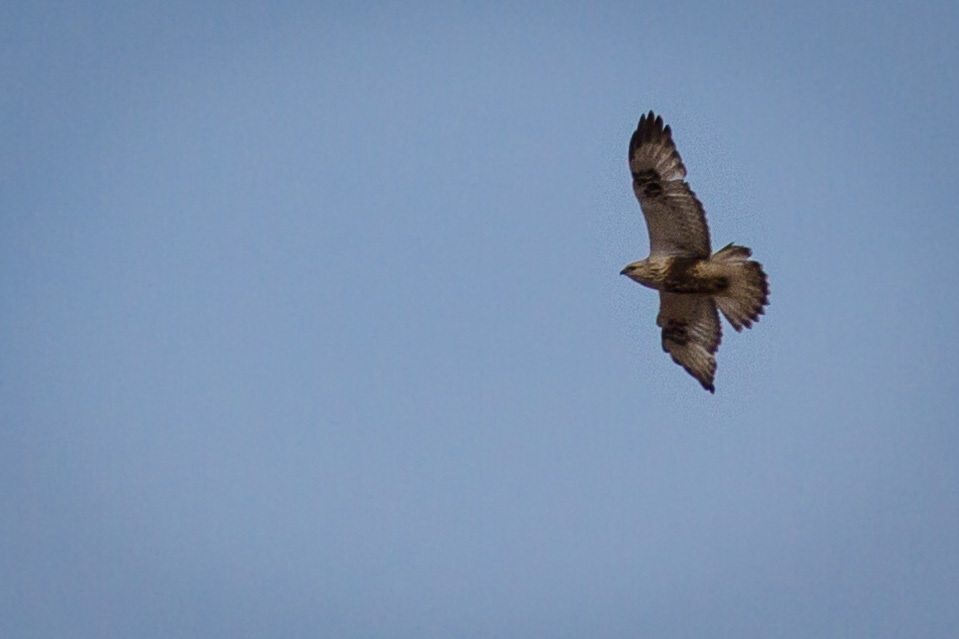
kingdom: Animalia
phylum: Chordata
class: Aves
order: Accipitriformes
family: Accipitridae
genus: Buteo
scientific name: Buteo lagopus
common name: Rough-legged buzzard
